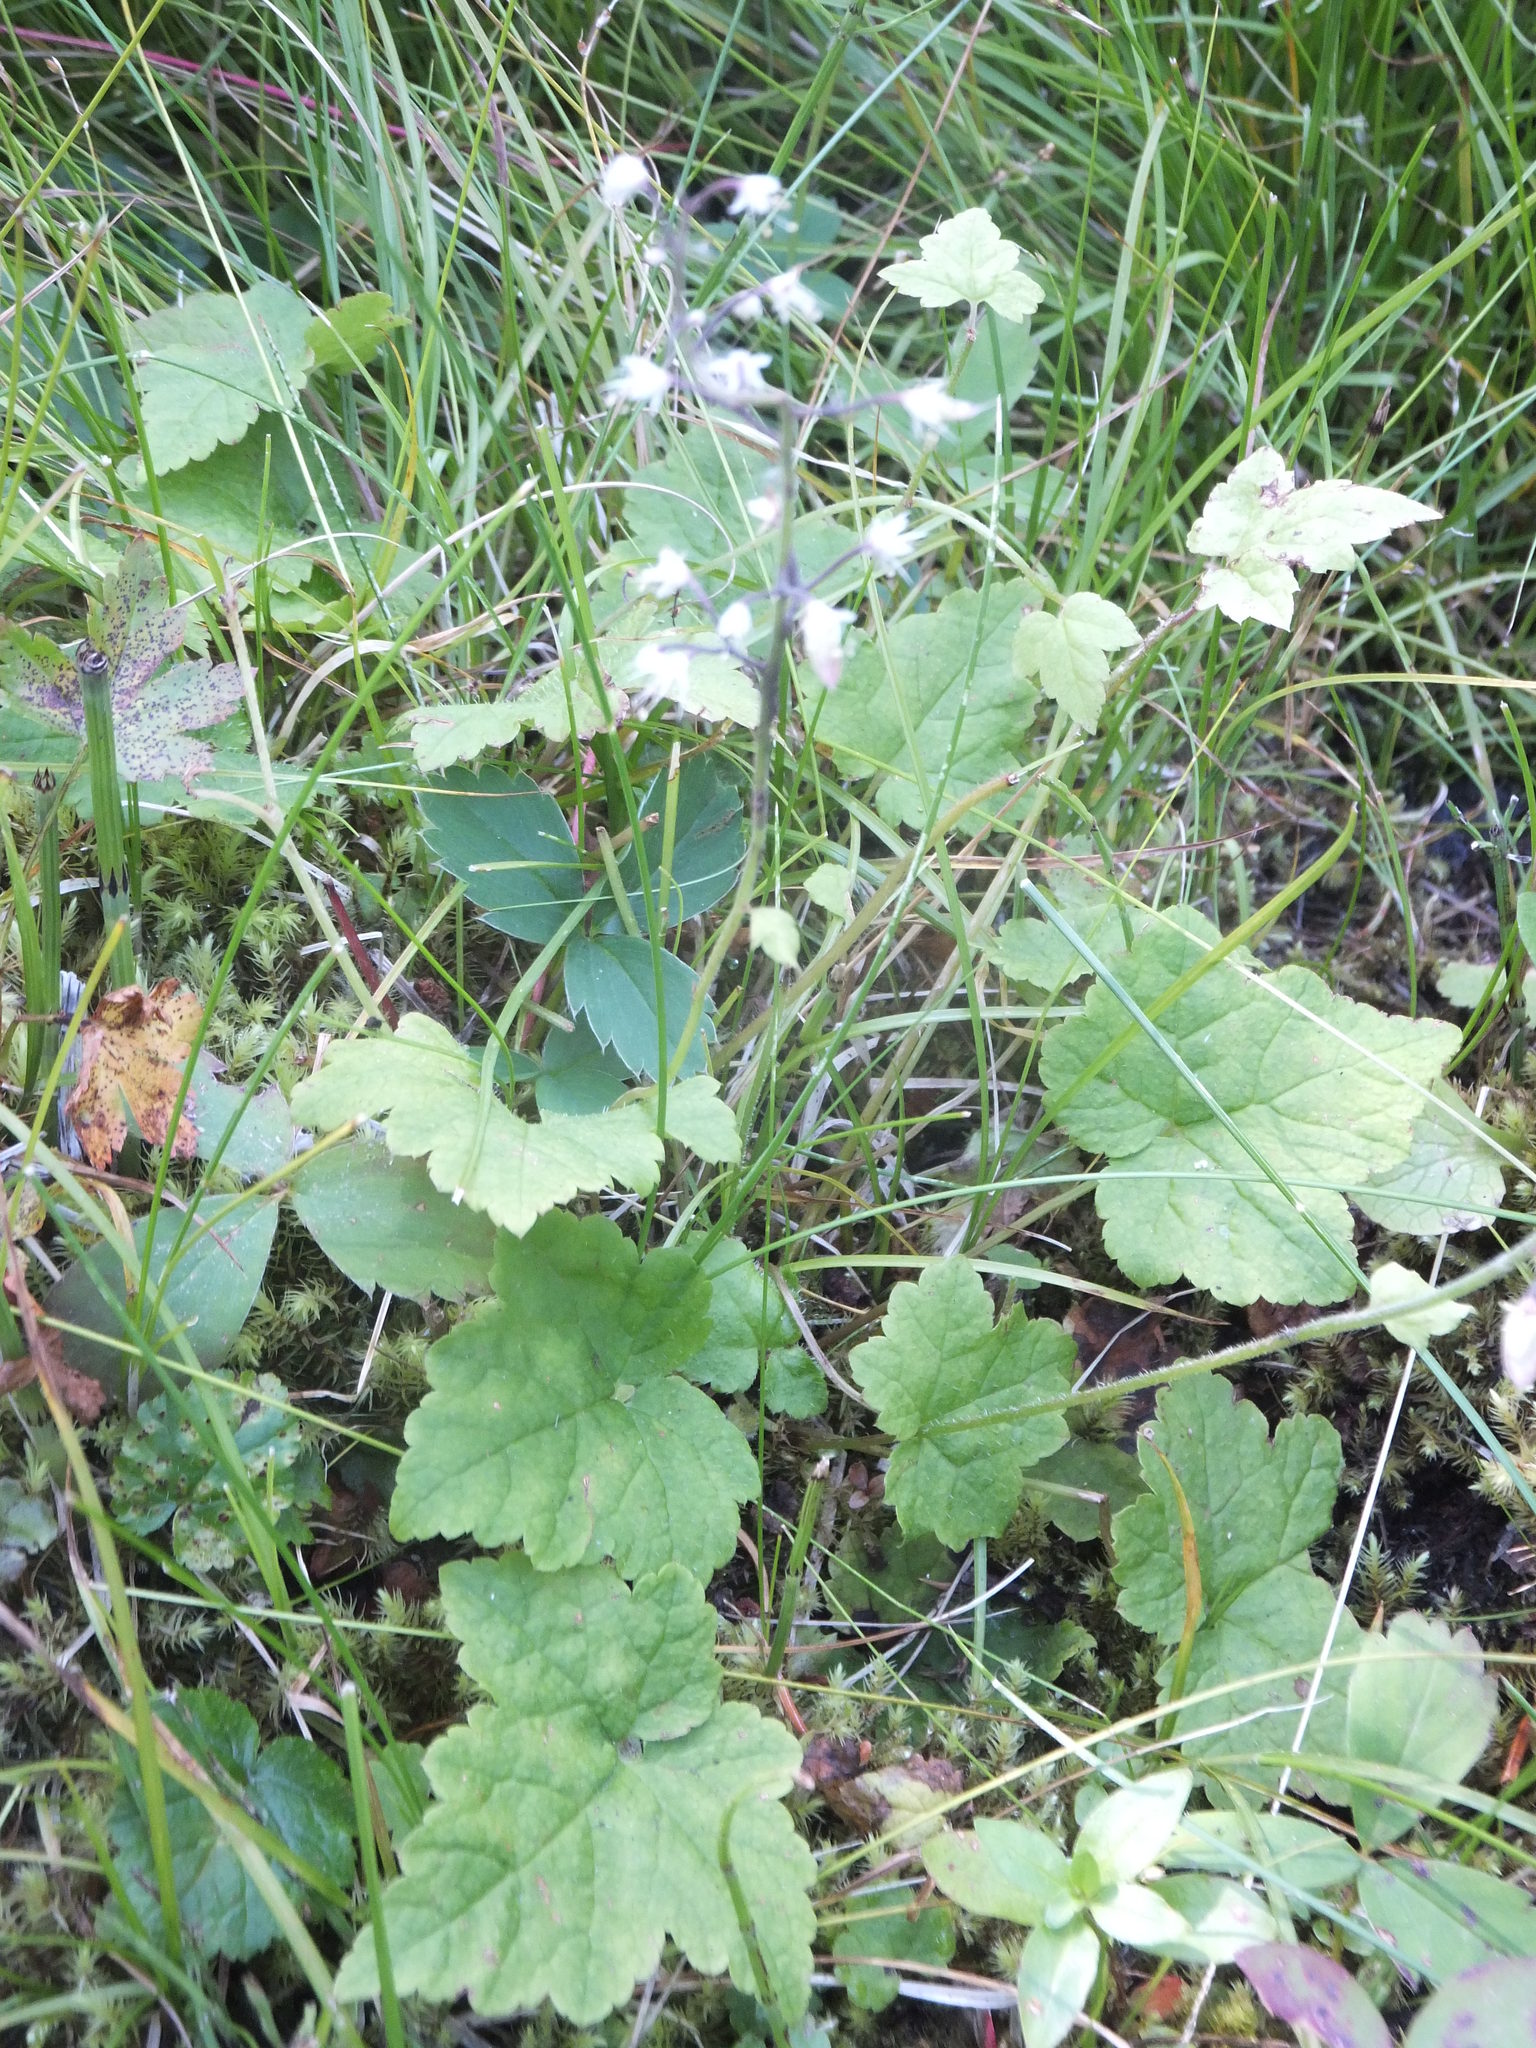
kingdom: Plantae
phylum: Tracheophyta
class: Magnoliopsida
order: Saxifragales
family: Saxifragaceae
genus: Tiarella
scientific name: Tiarella trifoliata
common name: Sugar-scoop
